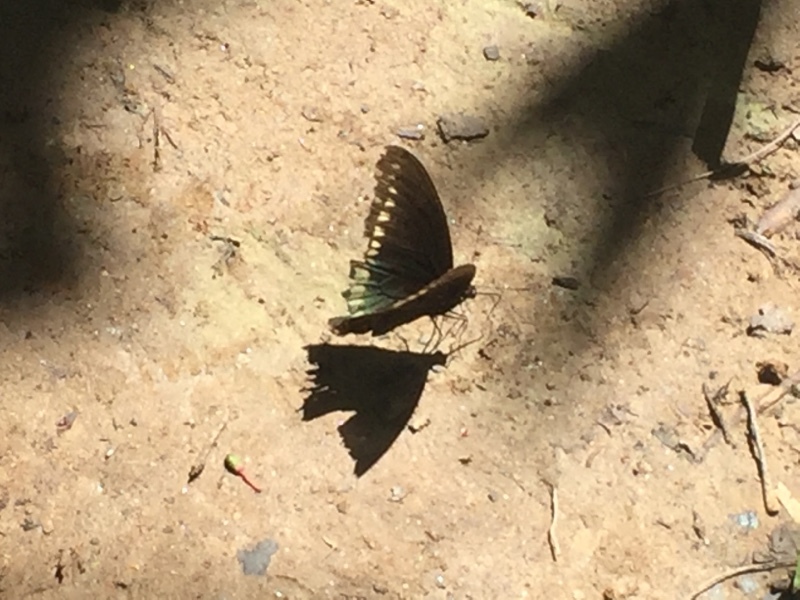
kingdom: Animalia
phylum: Arthropoda
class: Insecta
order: Lepidoptera
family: Papilionidae
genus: Battus
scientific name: Battus polydamas
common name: Polydamas swallowtail
